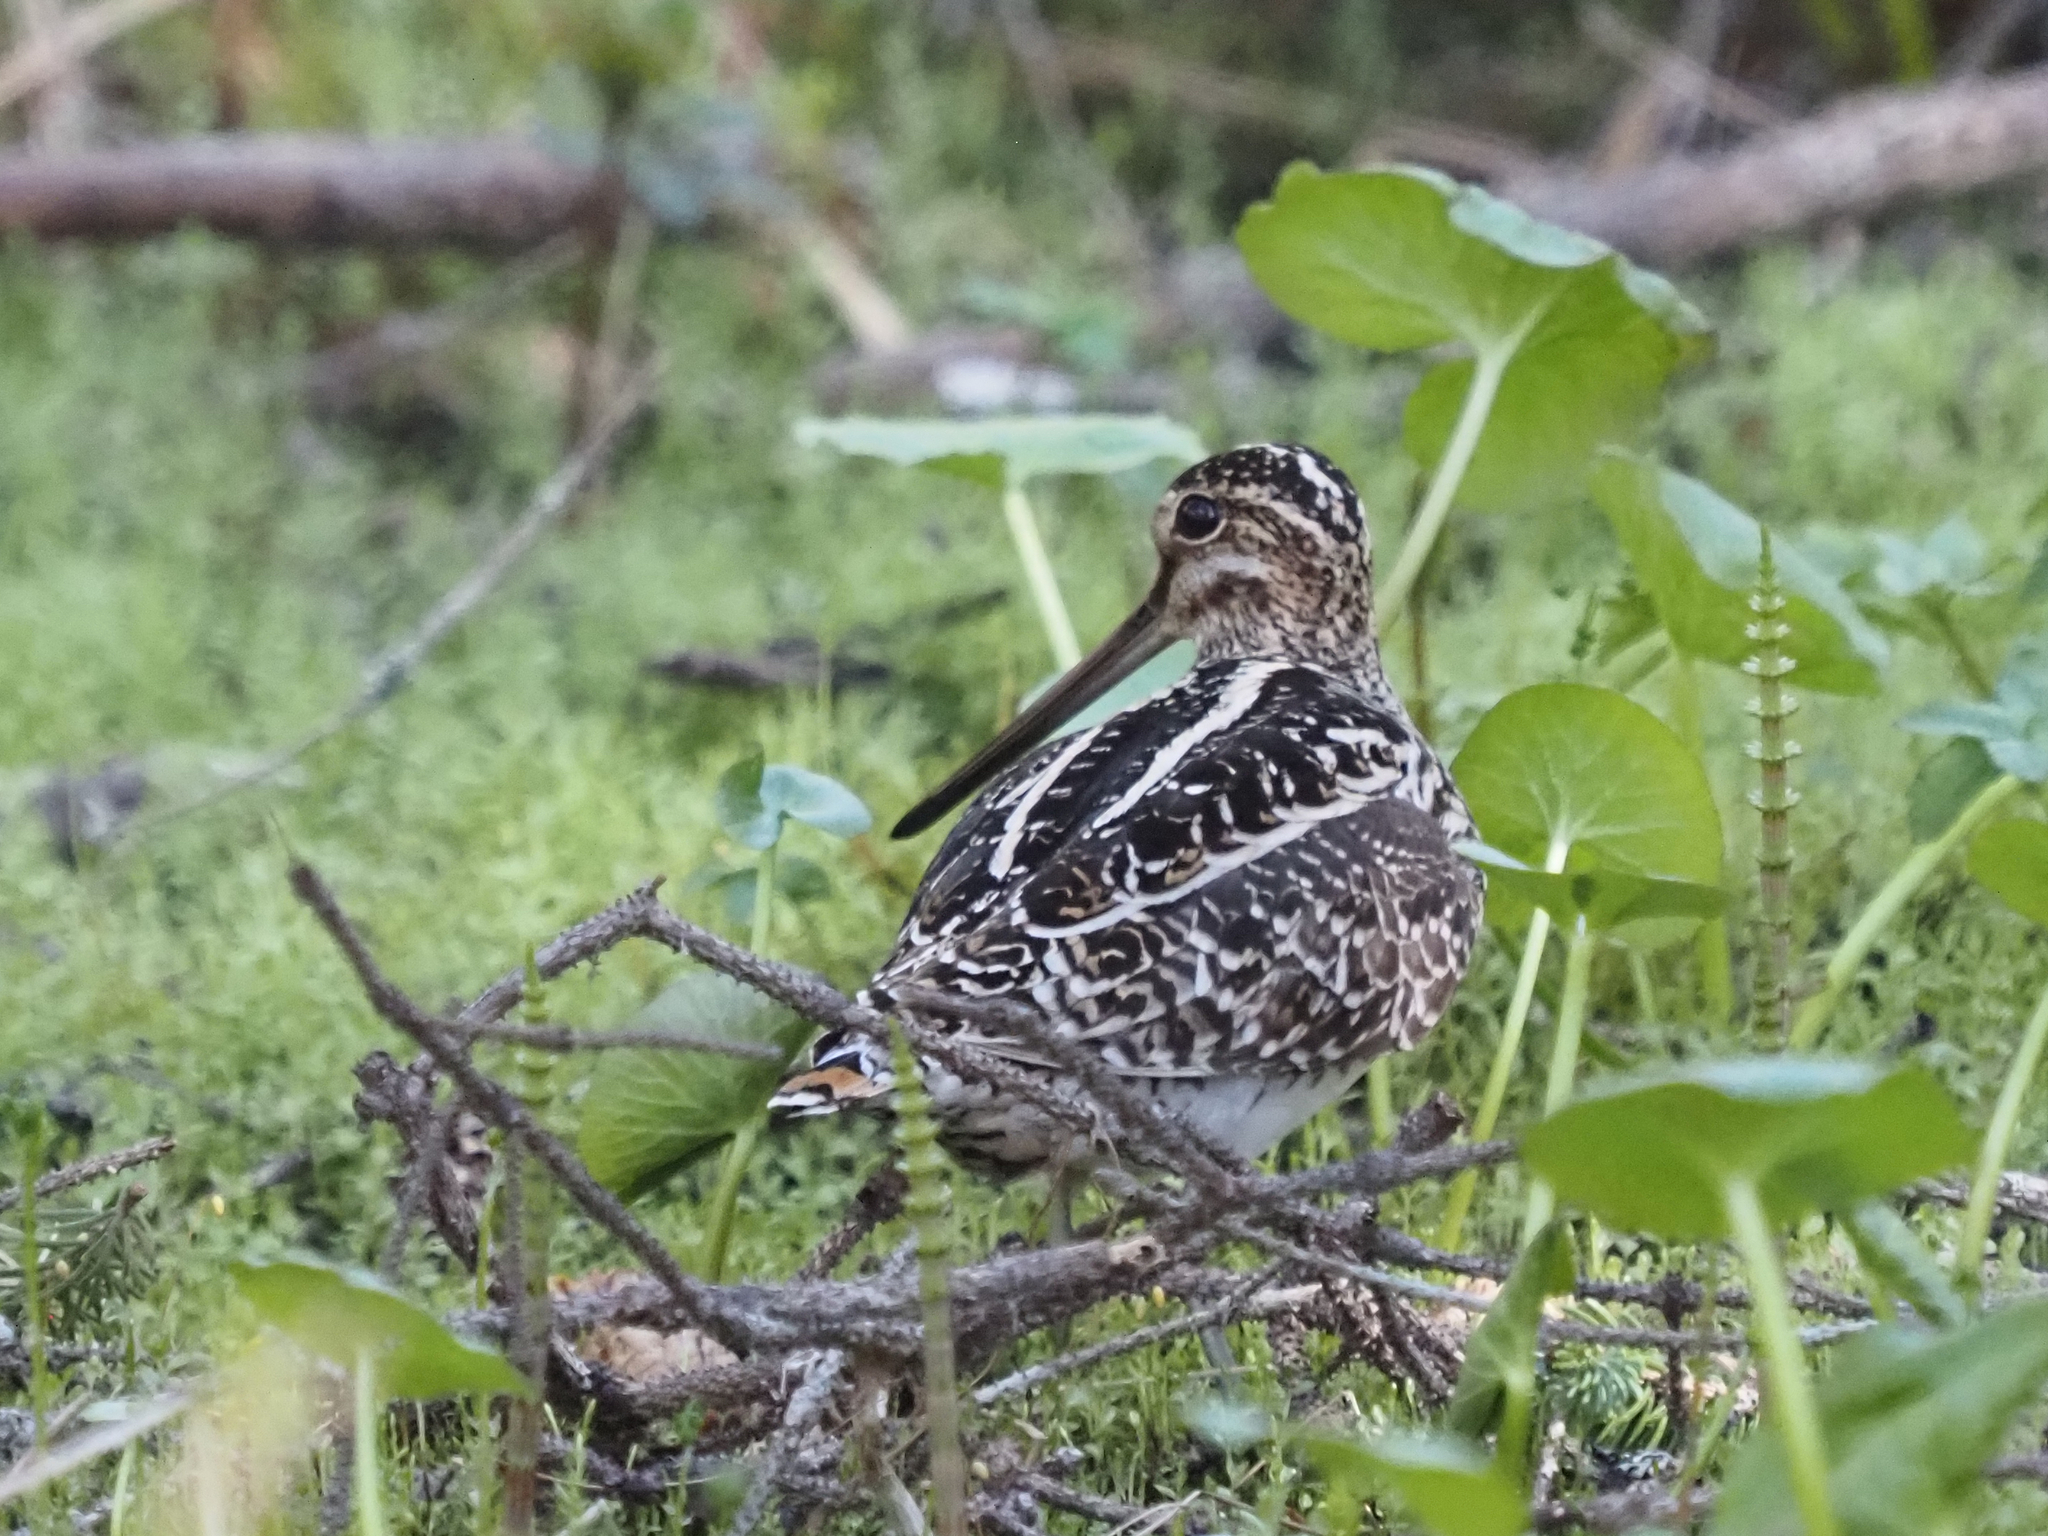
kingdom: Animalia
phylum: Chordata
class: Aves
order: Charadriiformes
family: Scolopacidae
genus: Gallinago
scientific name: Gallinago delicata
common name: Wilson's snipe
